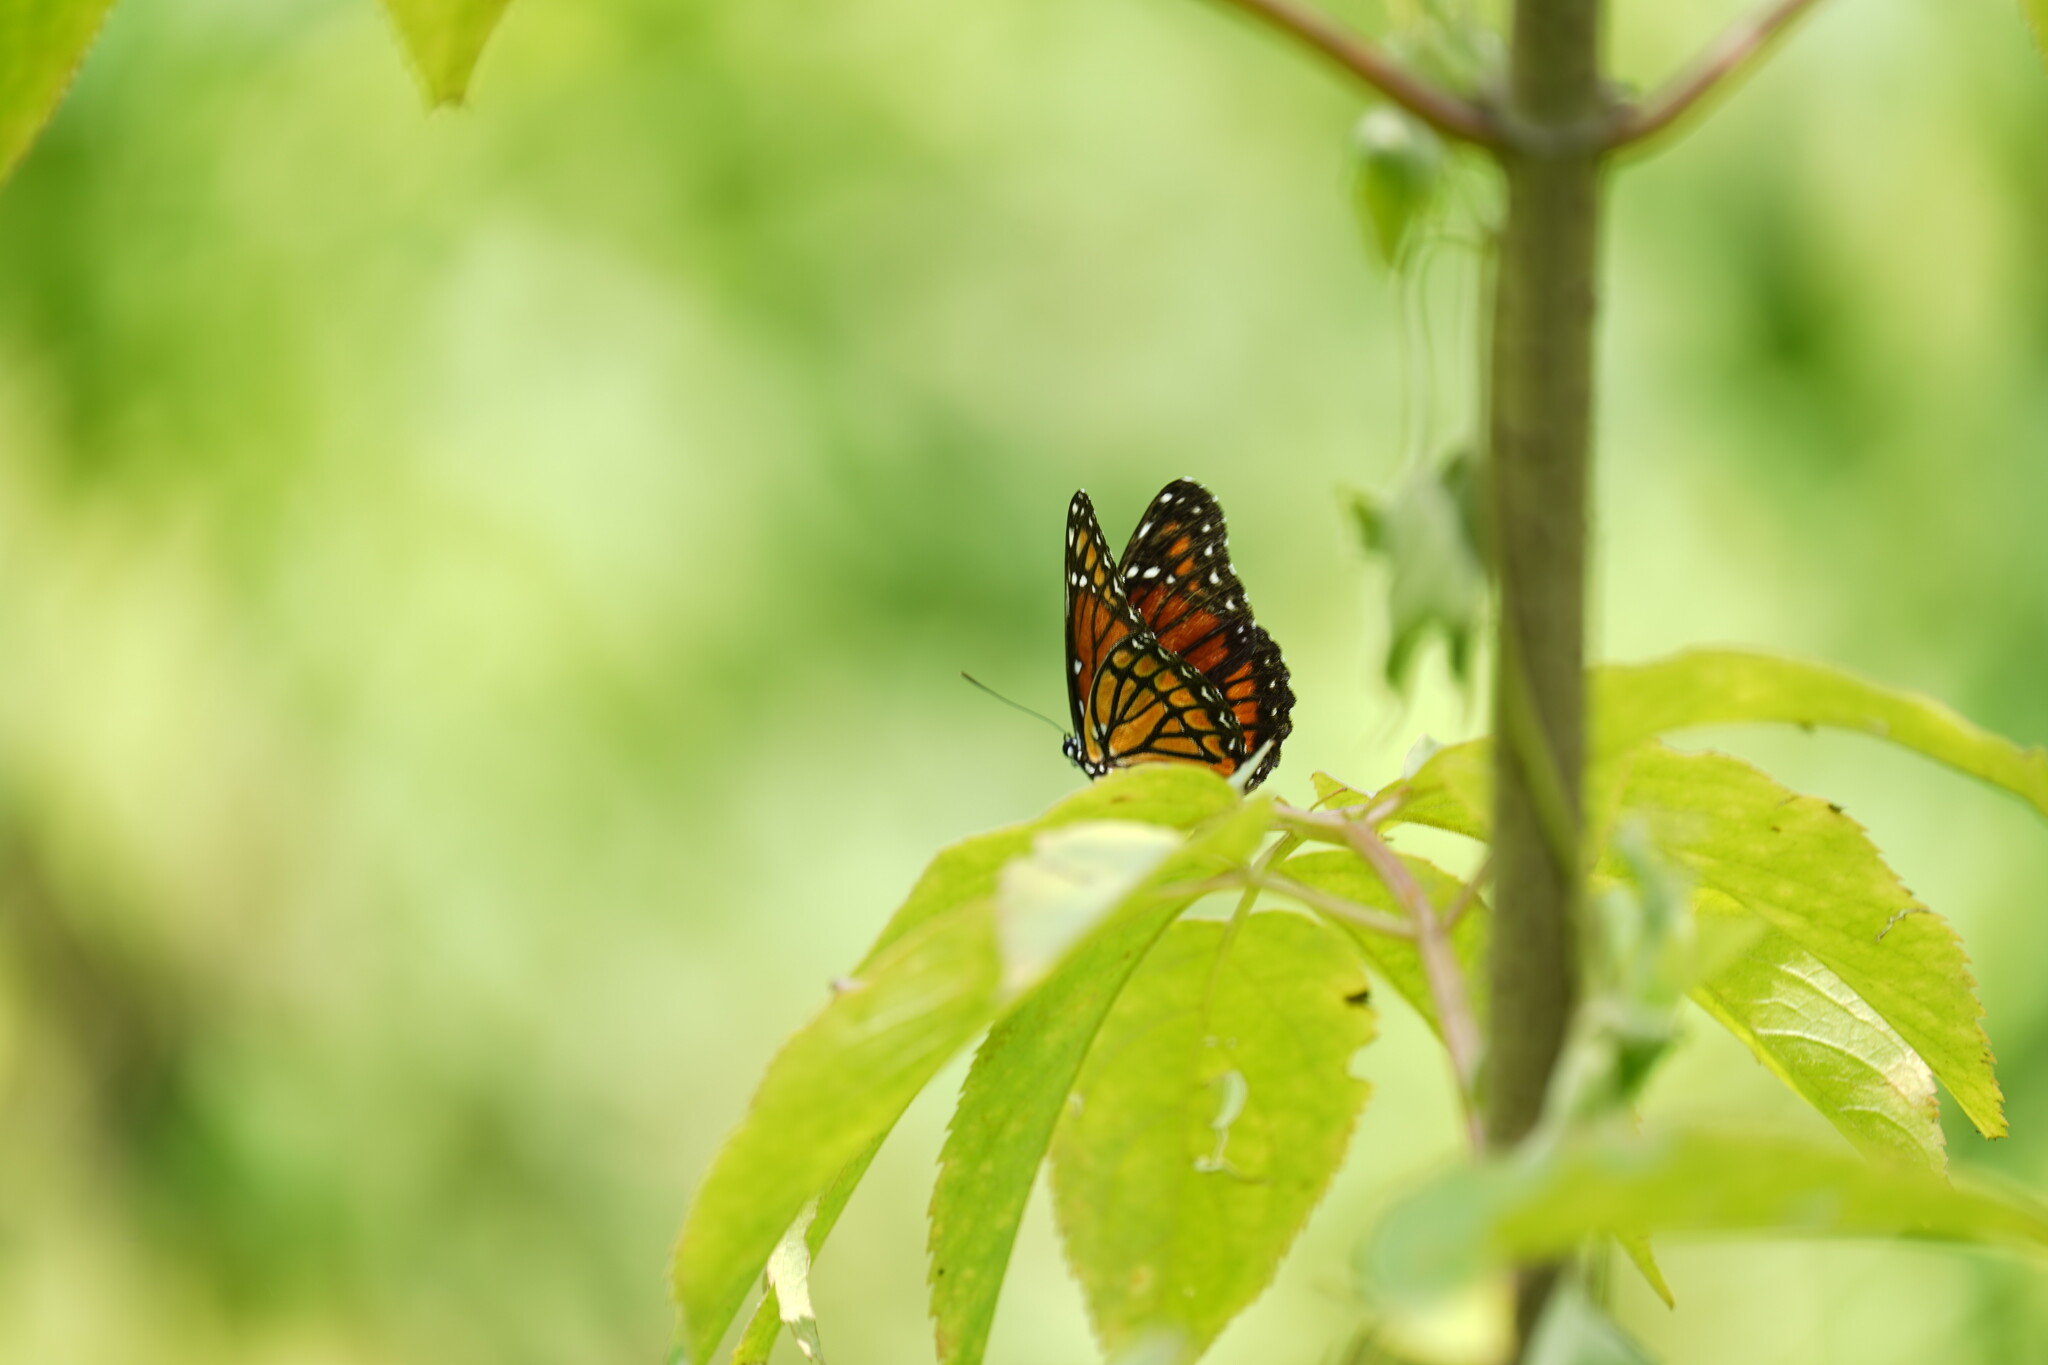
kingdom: Animalia
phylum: Arthropoda
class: Insecta
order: Lepidoptera
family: Nymphalidae
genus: Limenitis
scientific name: Limenitis archippus
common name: Viceroy
